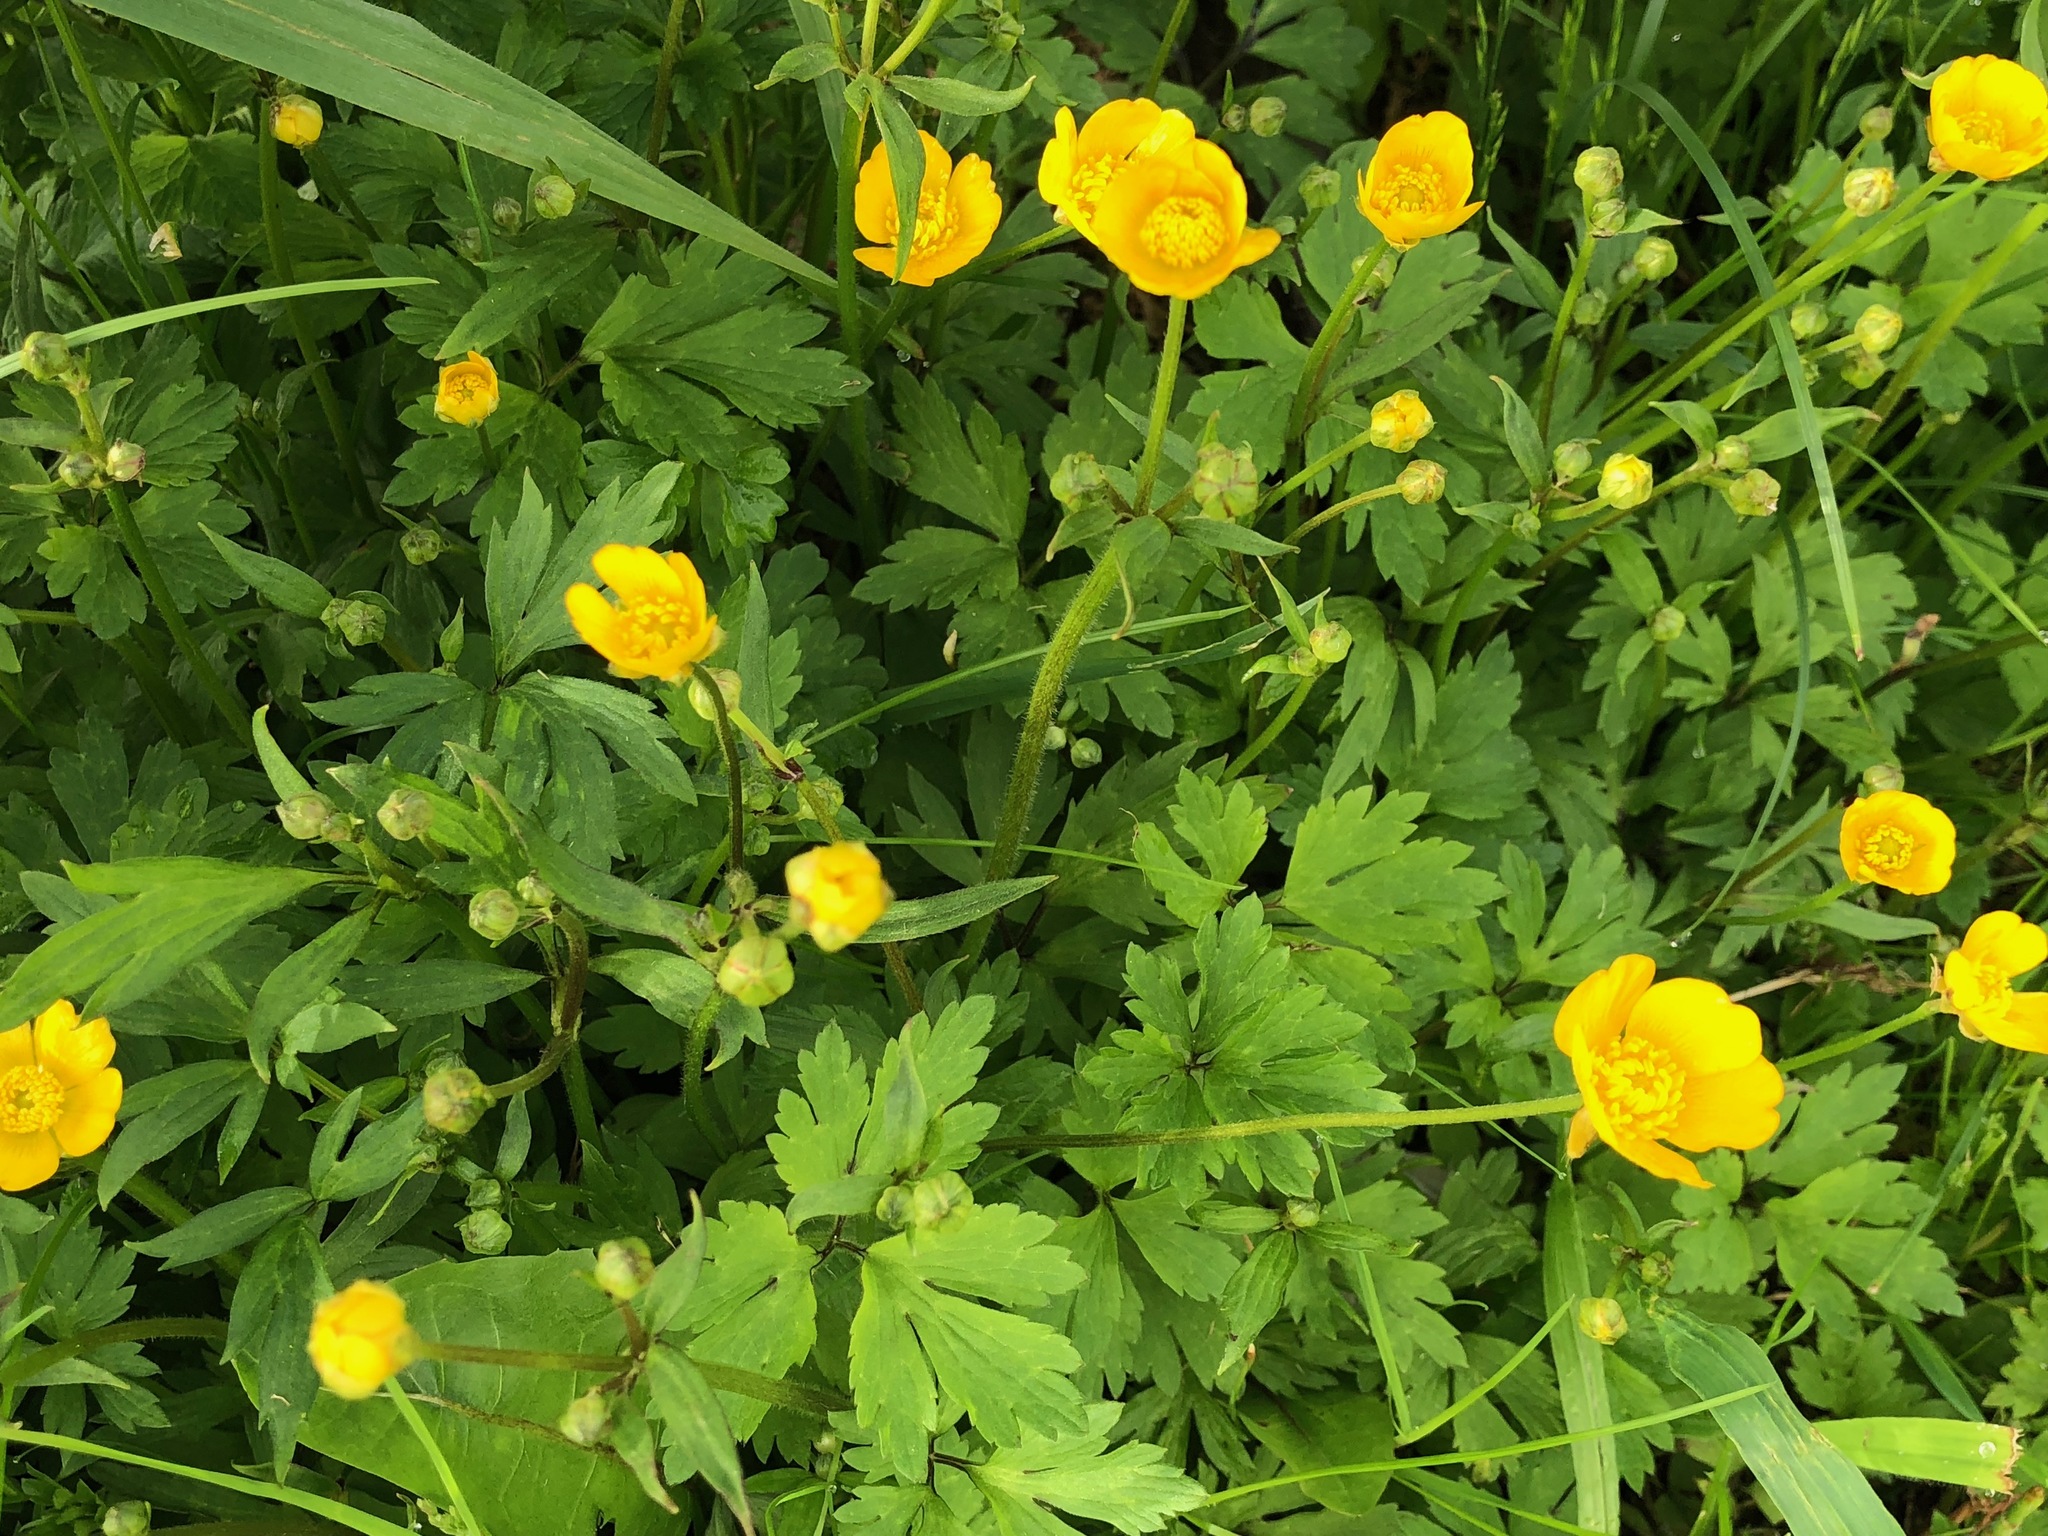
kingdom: Plantae
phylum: Tracheophyta
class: Magnoliopsida
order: Ranunculales
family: Ranunculaceae
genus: Ranunculus
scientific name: Ranunculus repens
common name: Creeping buttercup
